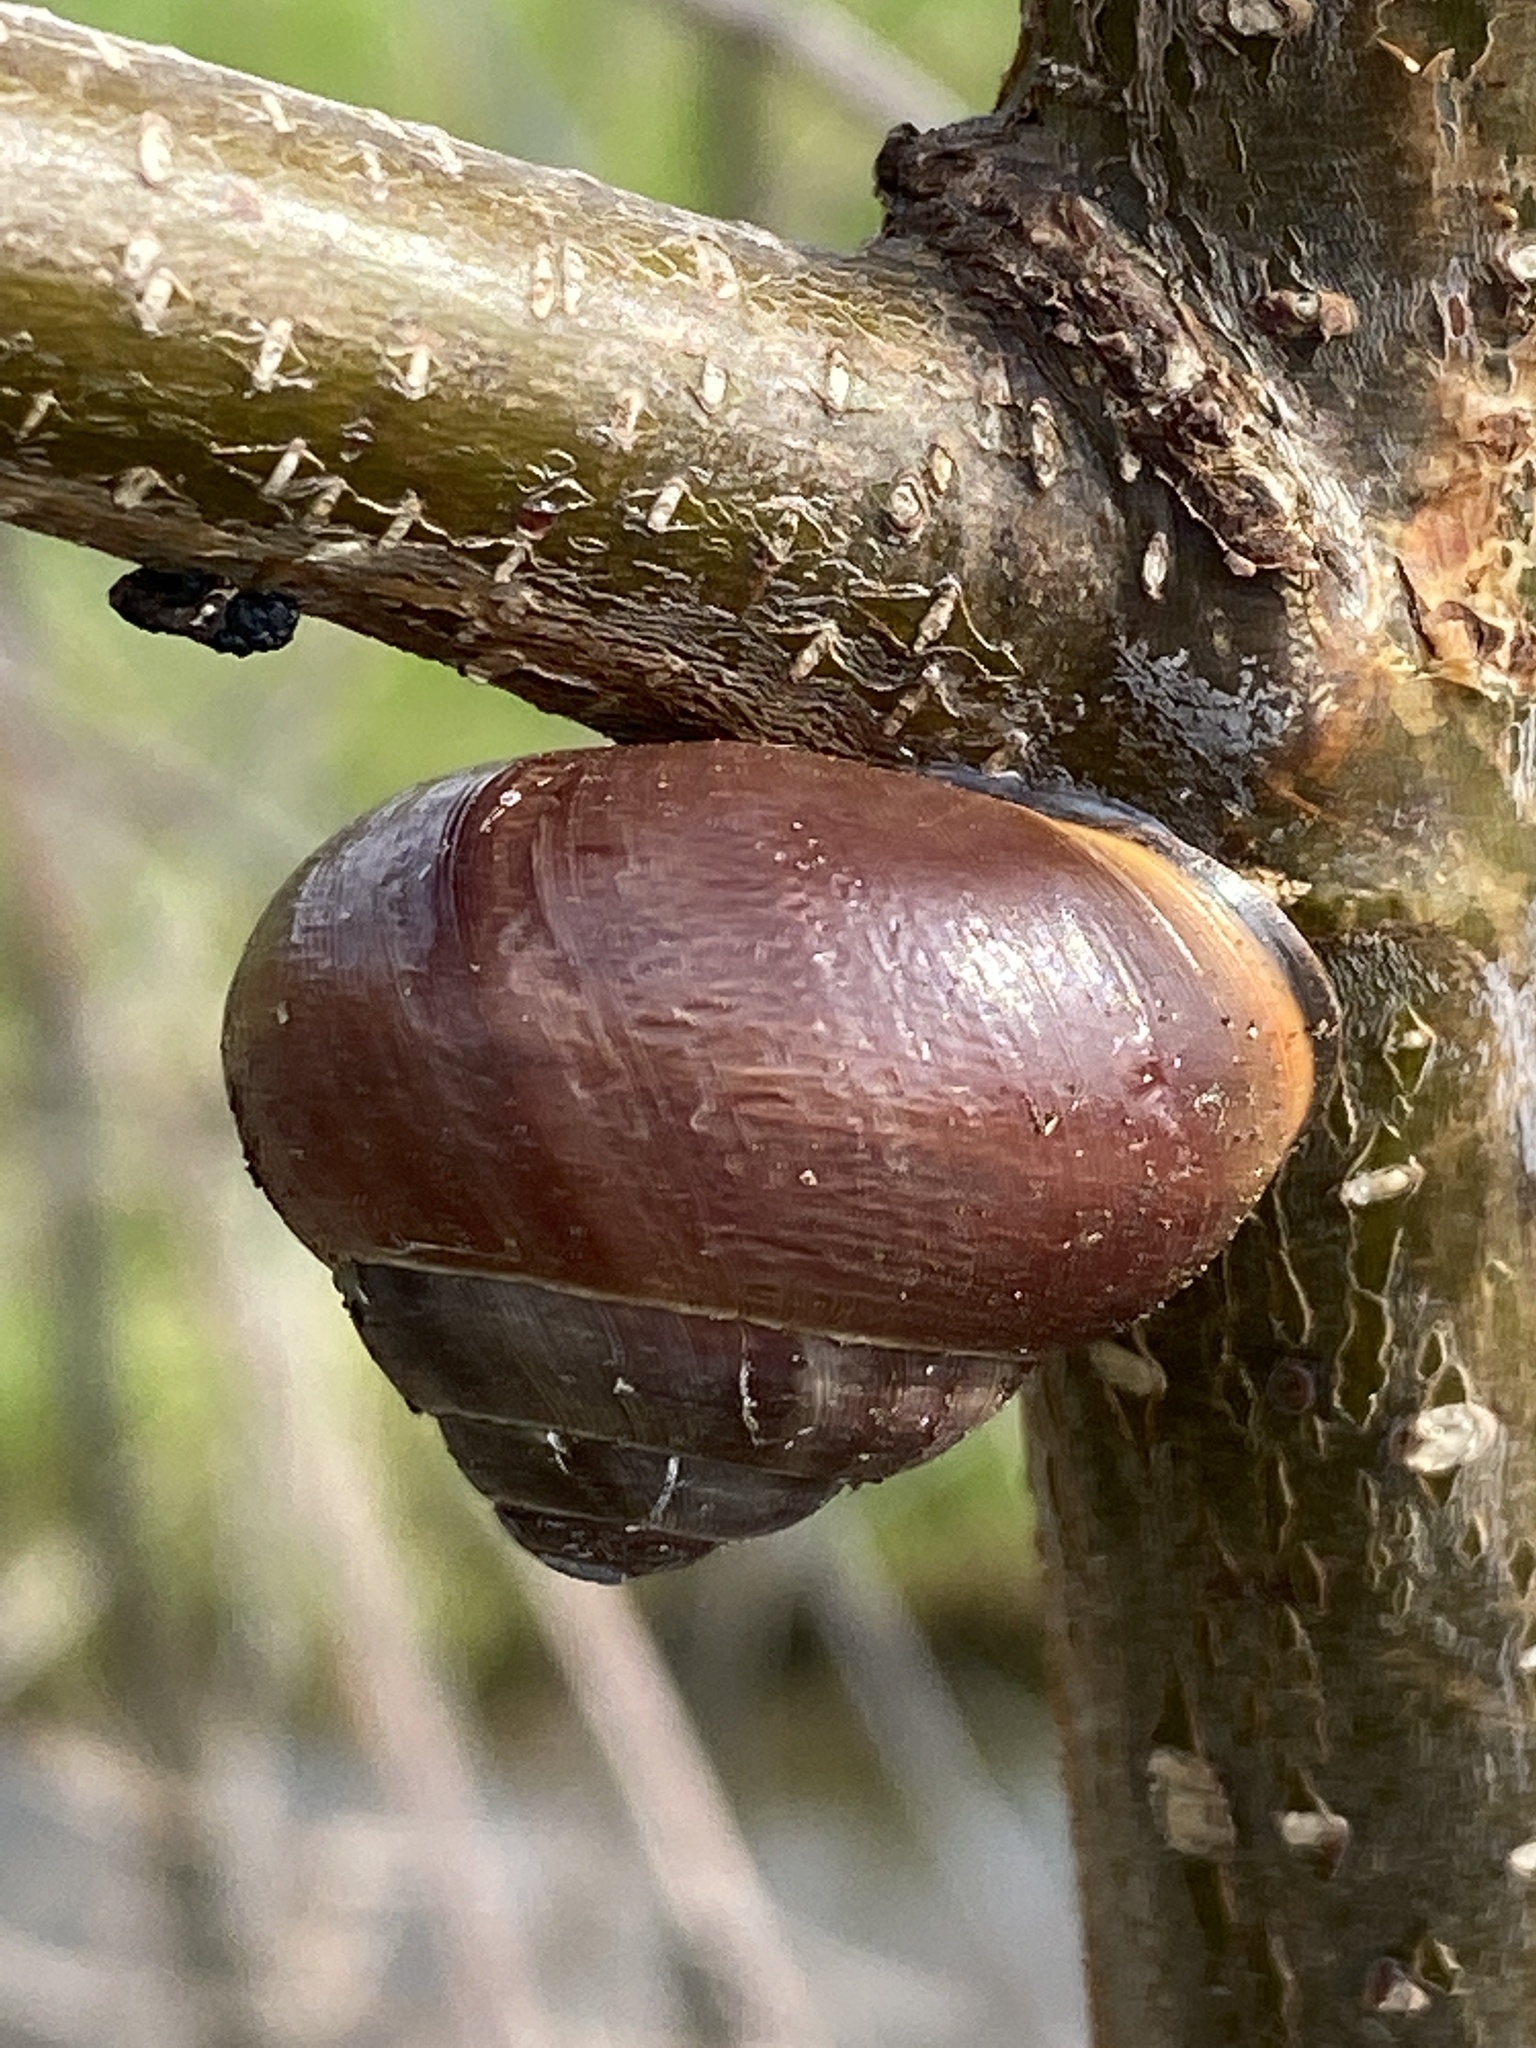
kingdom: Animalia
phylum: Mollusca
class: Gastropoda
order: Stylommatophora
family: Helicidae
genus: Cepaea
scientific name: Cepaea nemoralis
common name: Grovesnail
